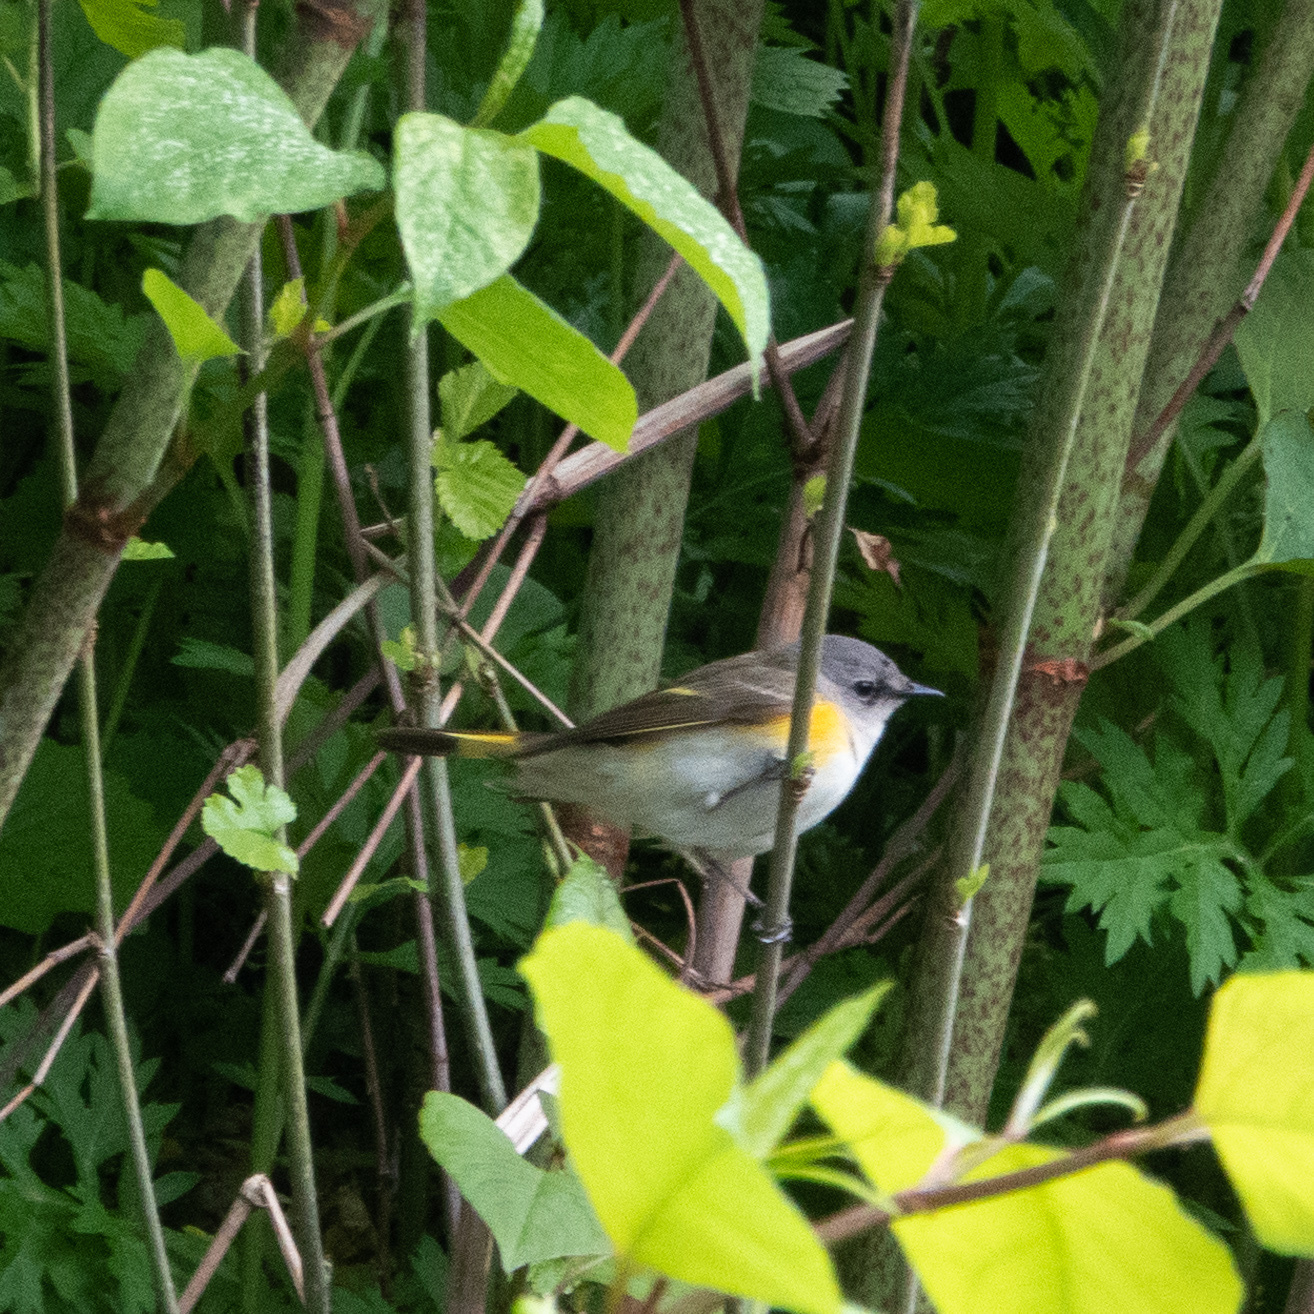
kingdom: Animalia
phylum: Chordata
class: Aves
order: Passeriformes
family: Parulidae
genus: Setophaga
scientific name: Setophaga ruticilla
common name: American redstart
